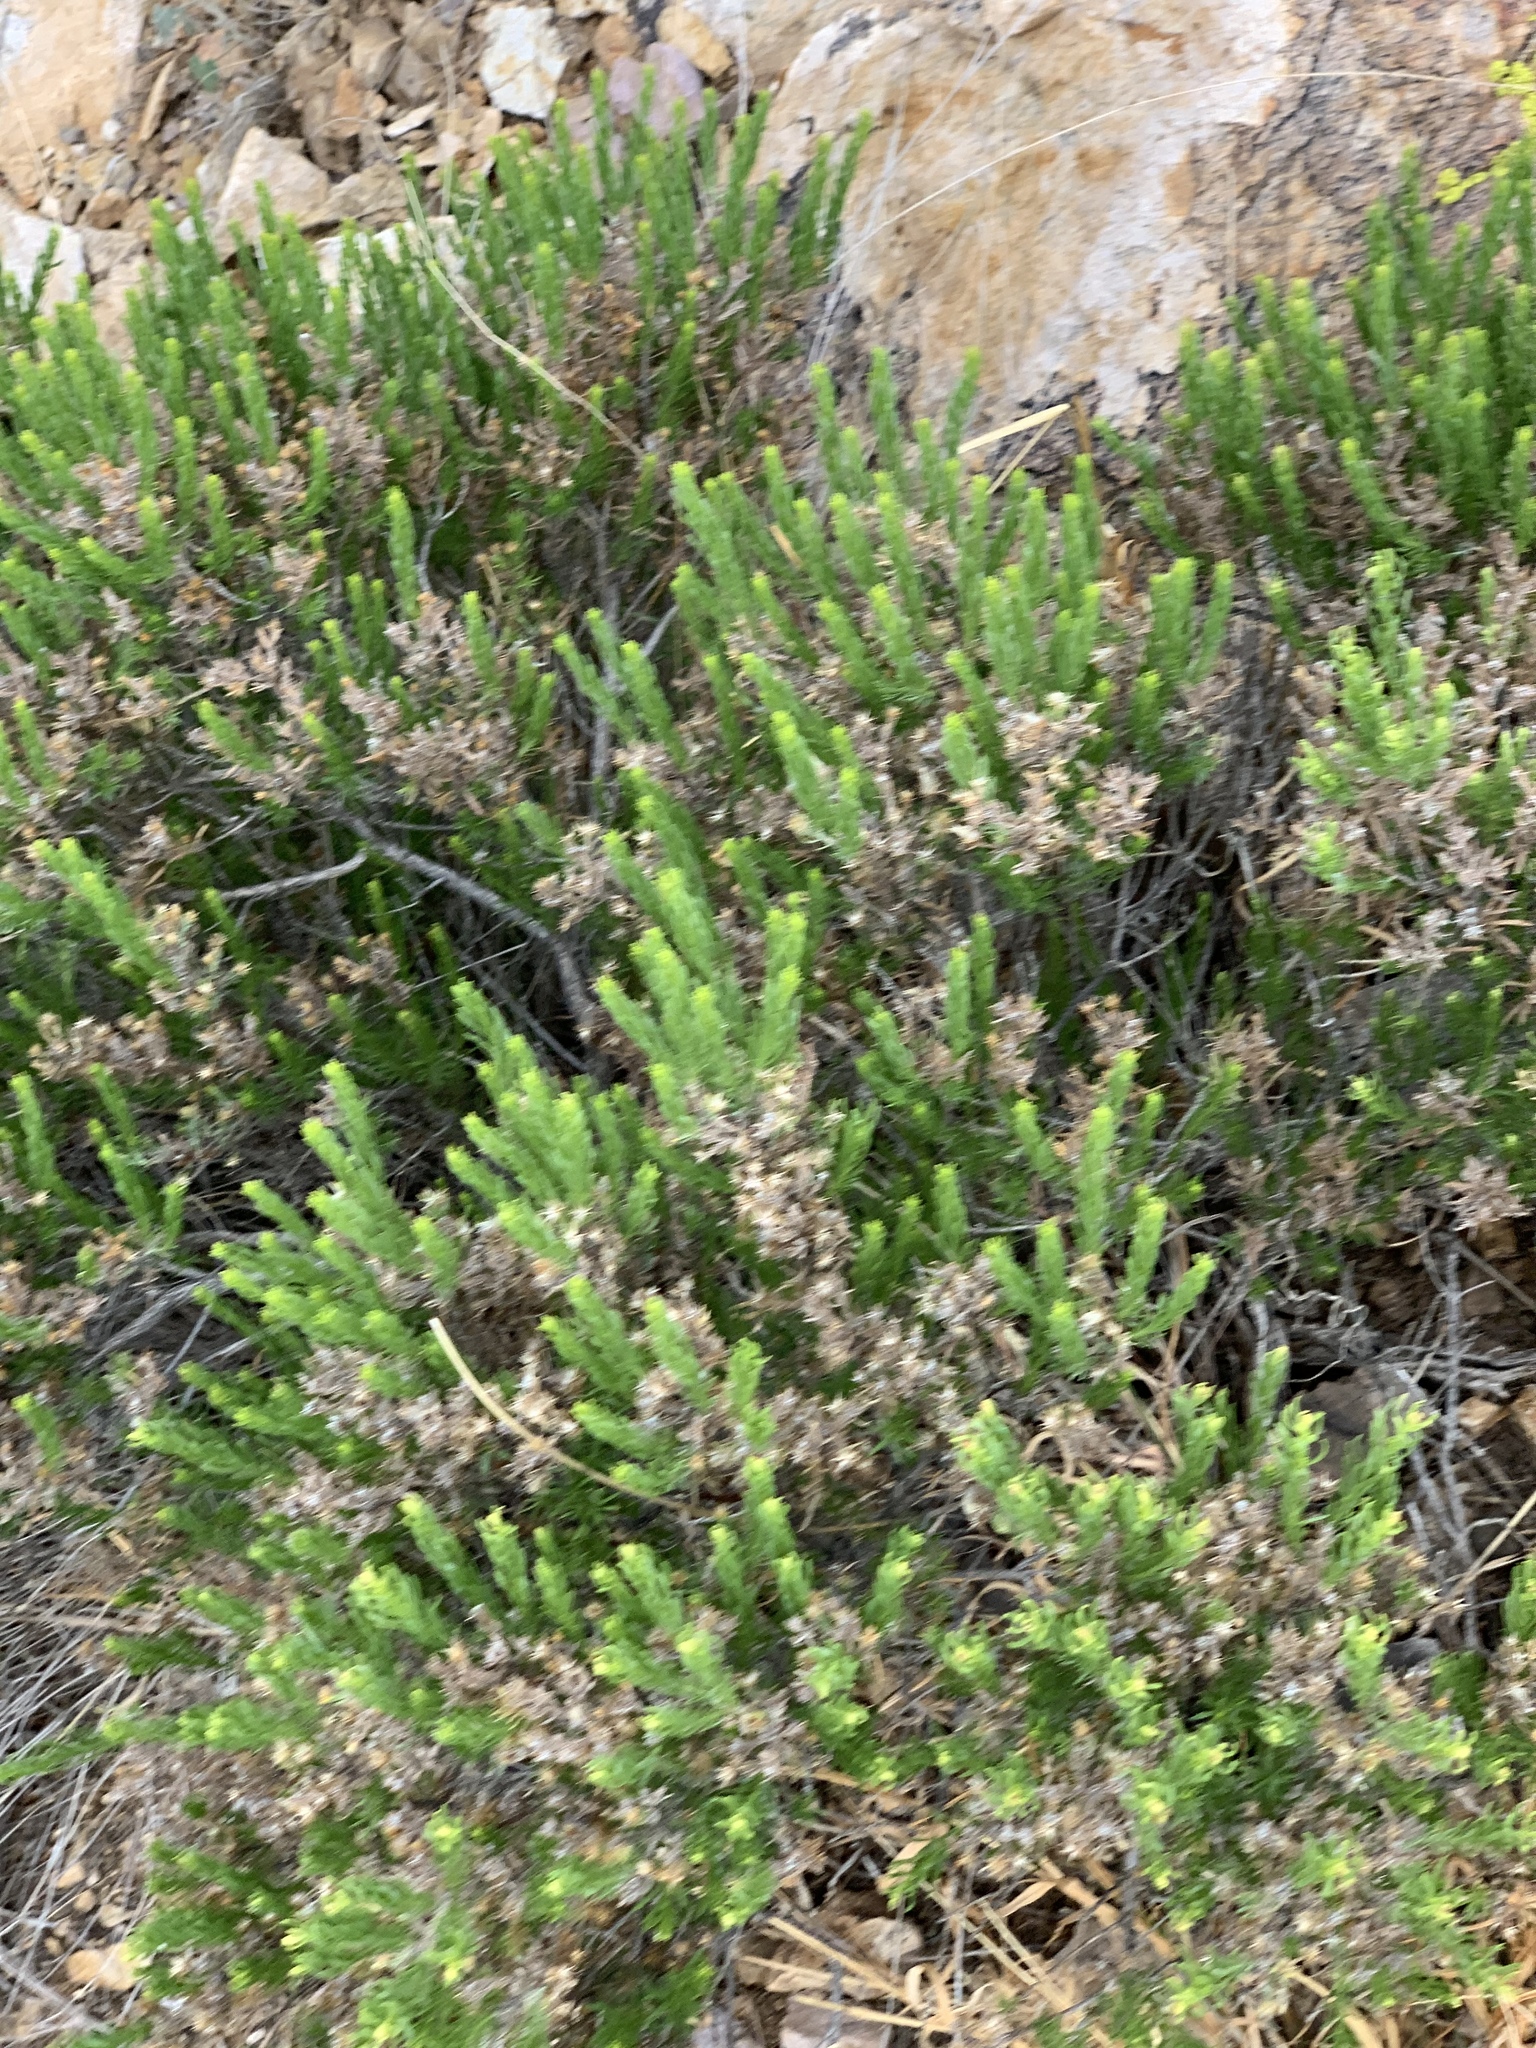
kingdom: Plantae
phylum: Tracheophyta
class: Magnoliopsida
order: Asterales
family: Asteraceae
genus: Peucephyllum
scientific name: Peucephyllum schottii
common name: Pygmy-cedar
